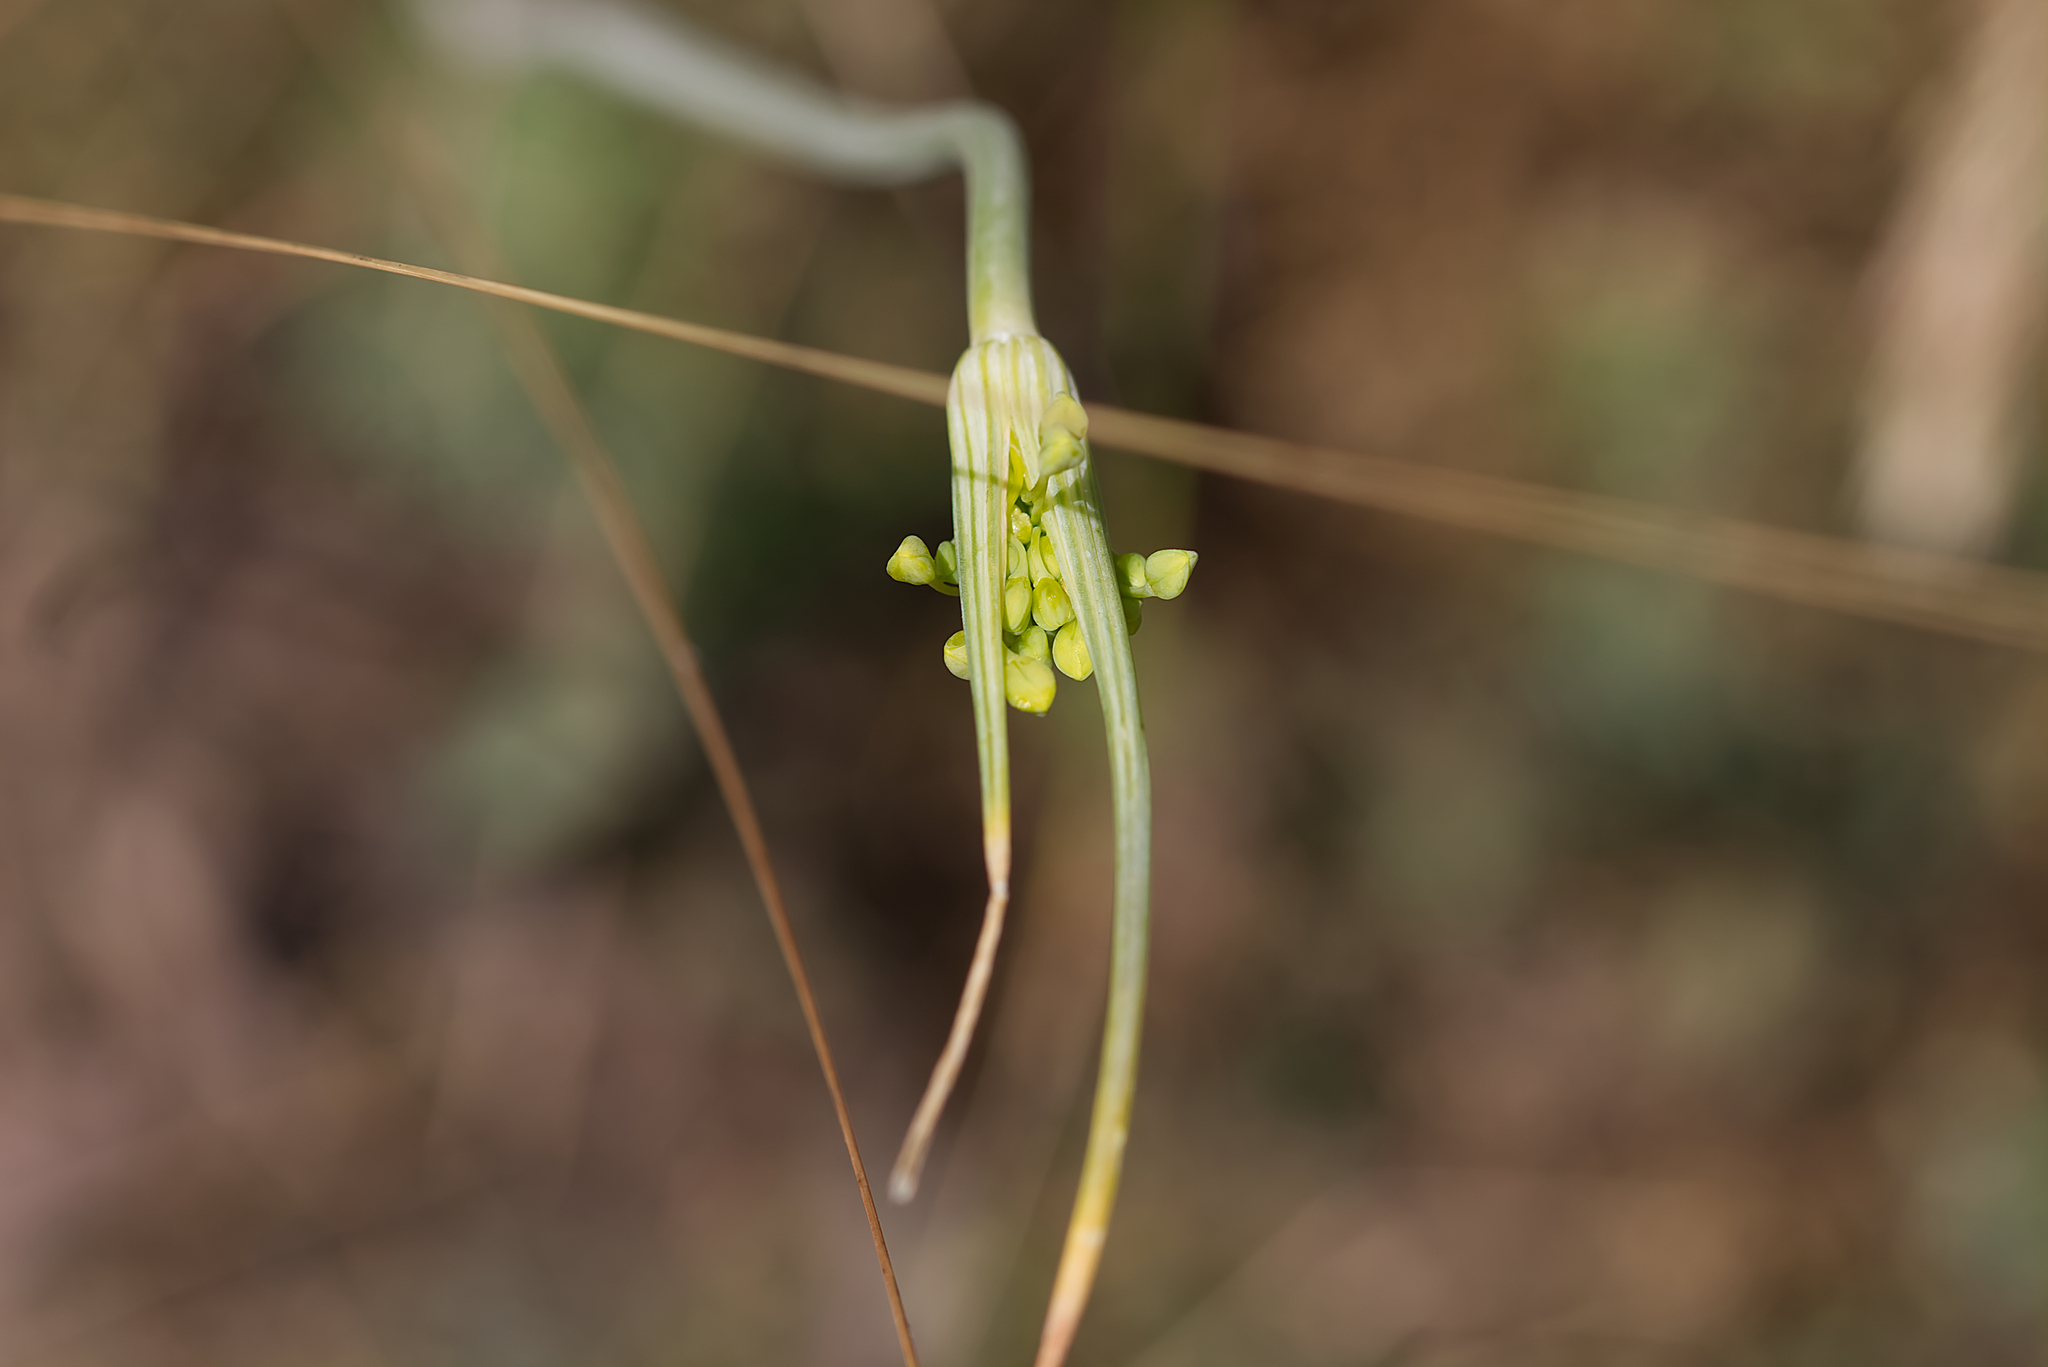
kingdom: Plantae
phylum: Tracheophyta
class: Liliopsida
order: Asparagales
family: Amaryllidaceae
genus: Allium
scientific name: Allium flavum
